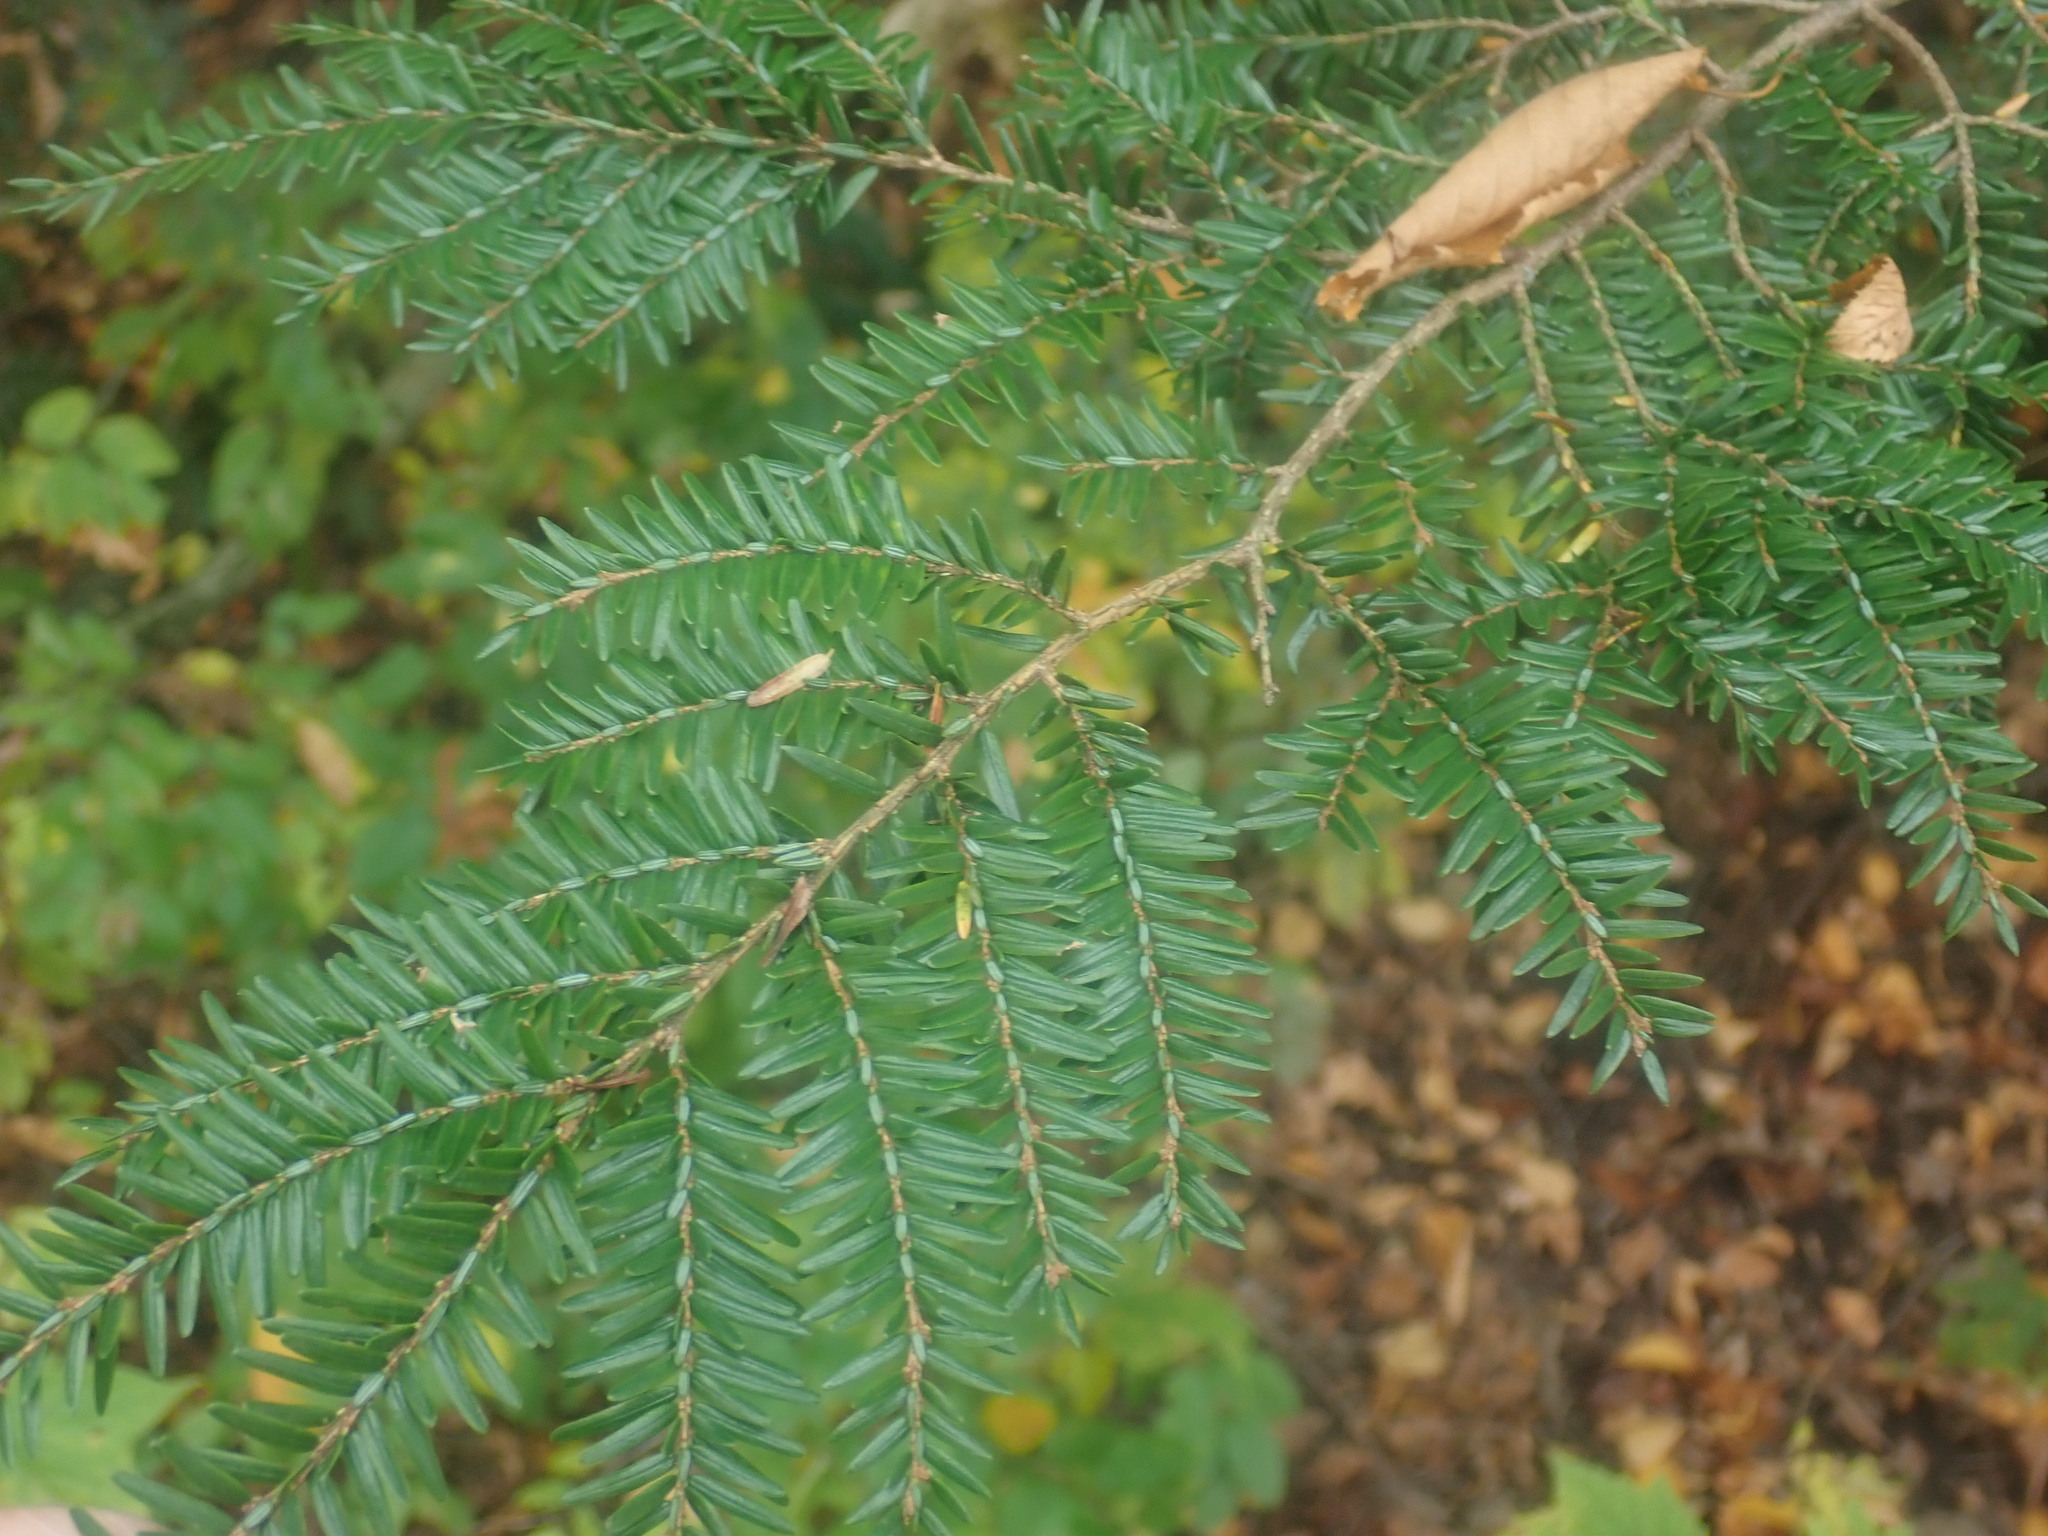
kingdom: Plantae
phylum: Tracheophyta
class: Pinopsida
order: Pinales
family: Pinaceae
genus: Tsuga
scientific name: Tsuga canadensis
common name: Eastern hemlock
